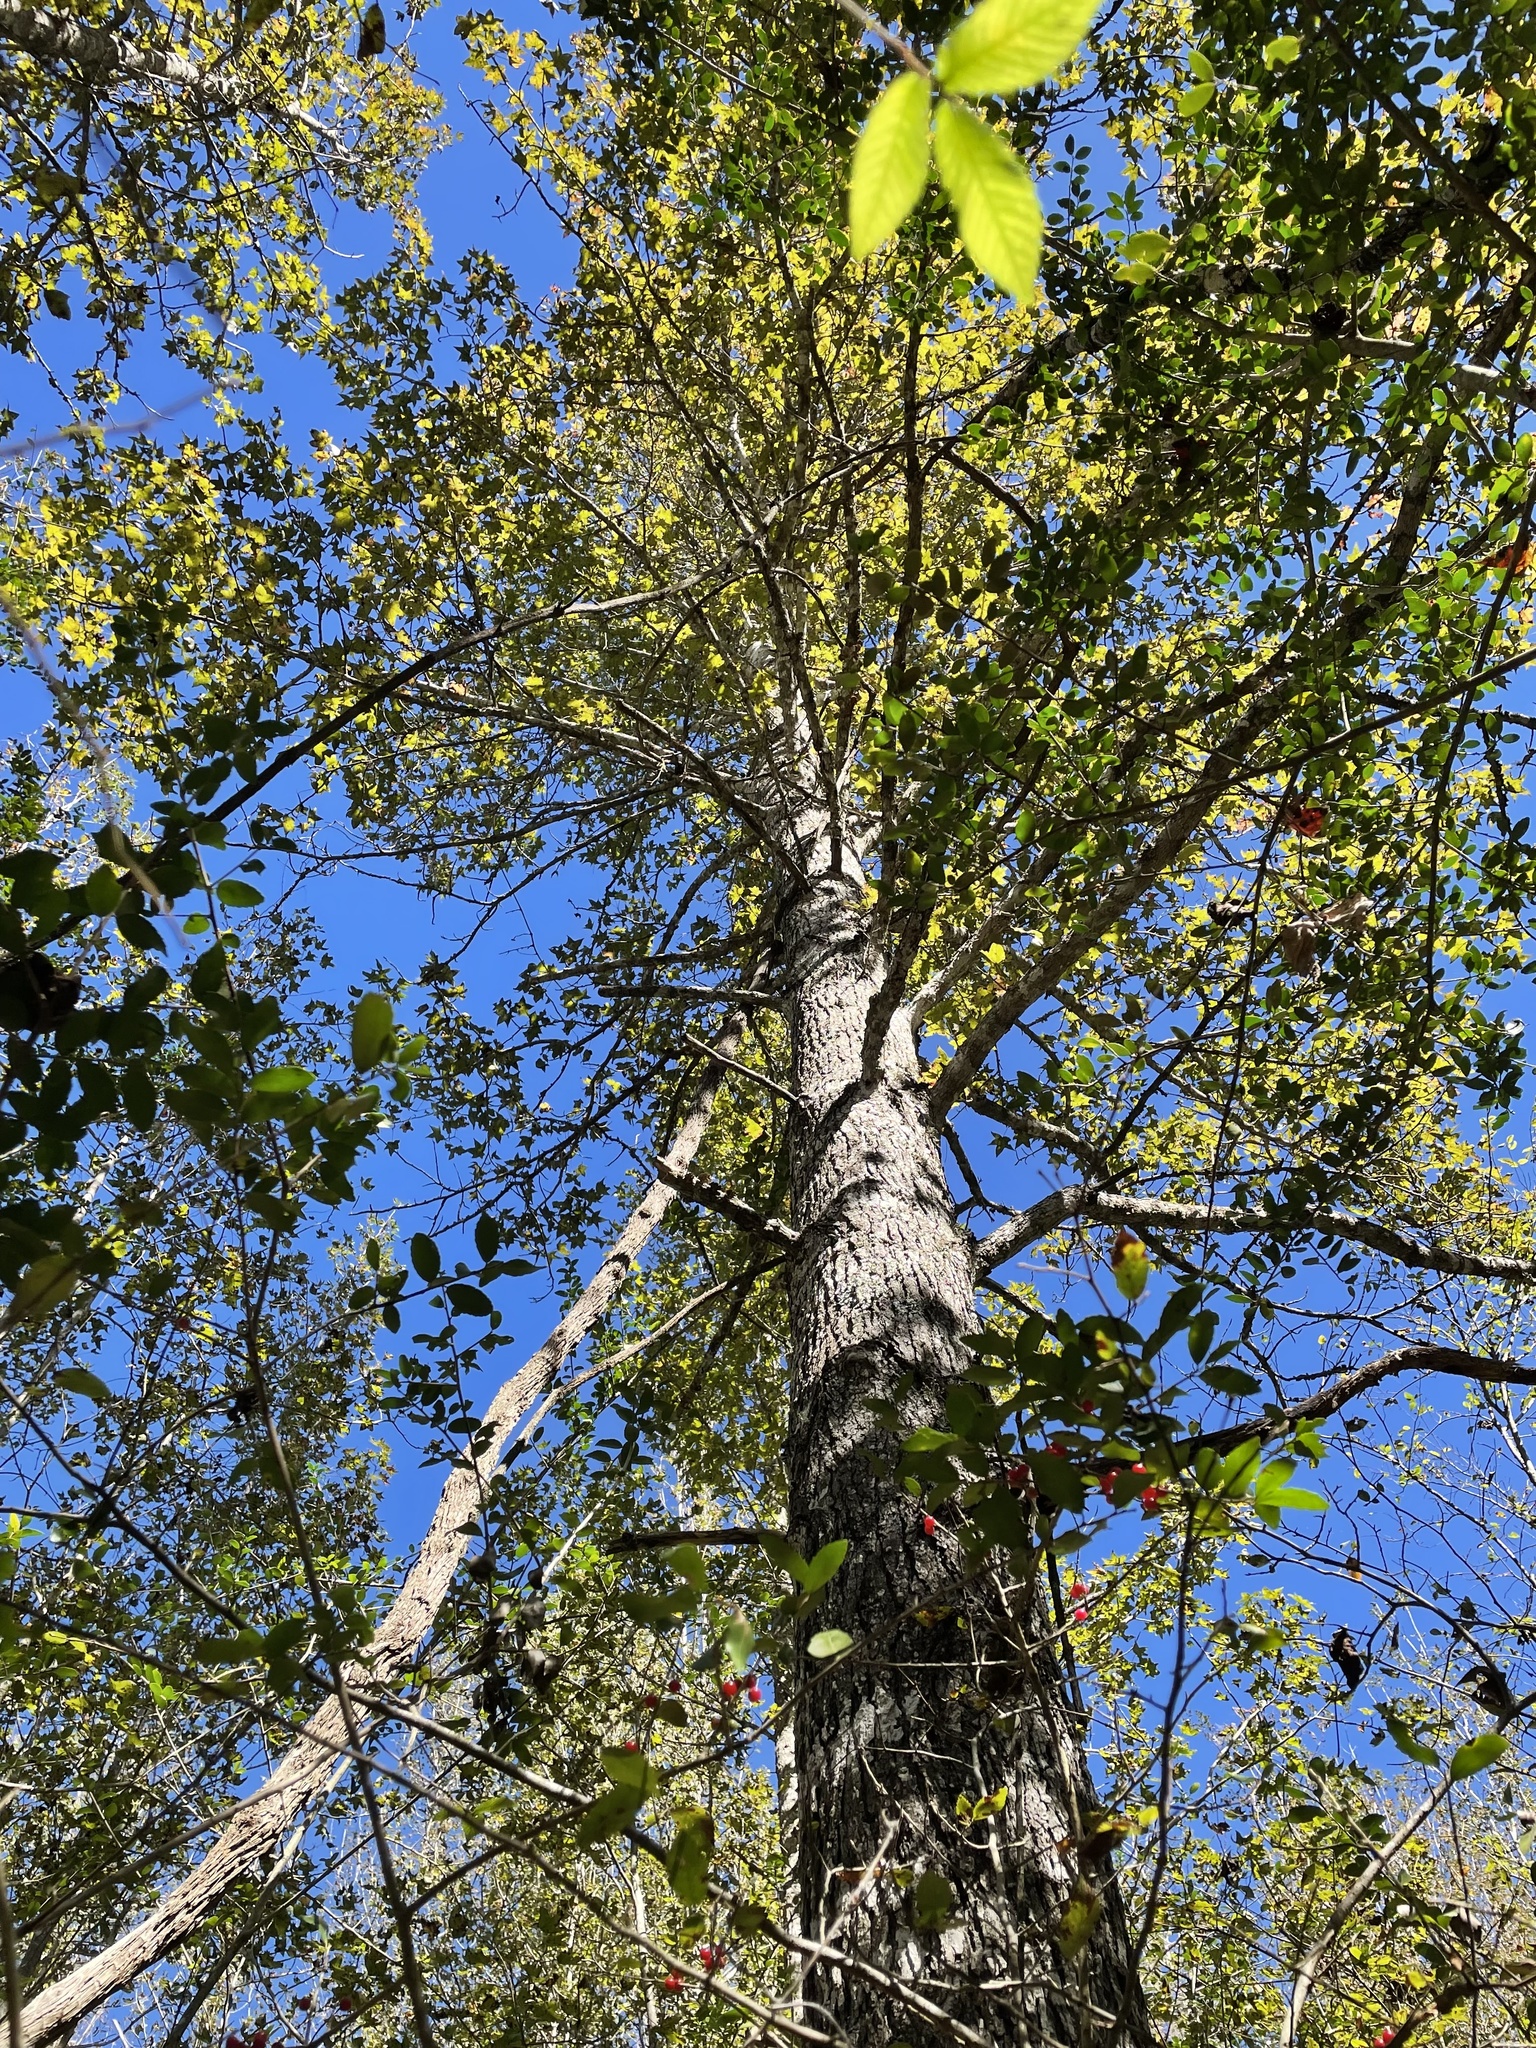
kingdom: Plantae
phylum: Tracheophyta
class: Magnoliopsida
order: Saxifragales
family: Altingiaceae
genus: Liquidambar
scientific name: Liquidambar styraciflua
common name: Sweet gum
